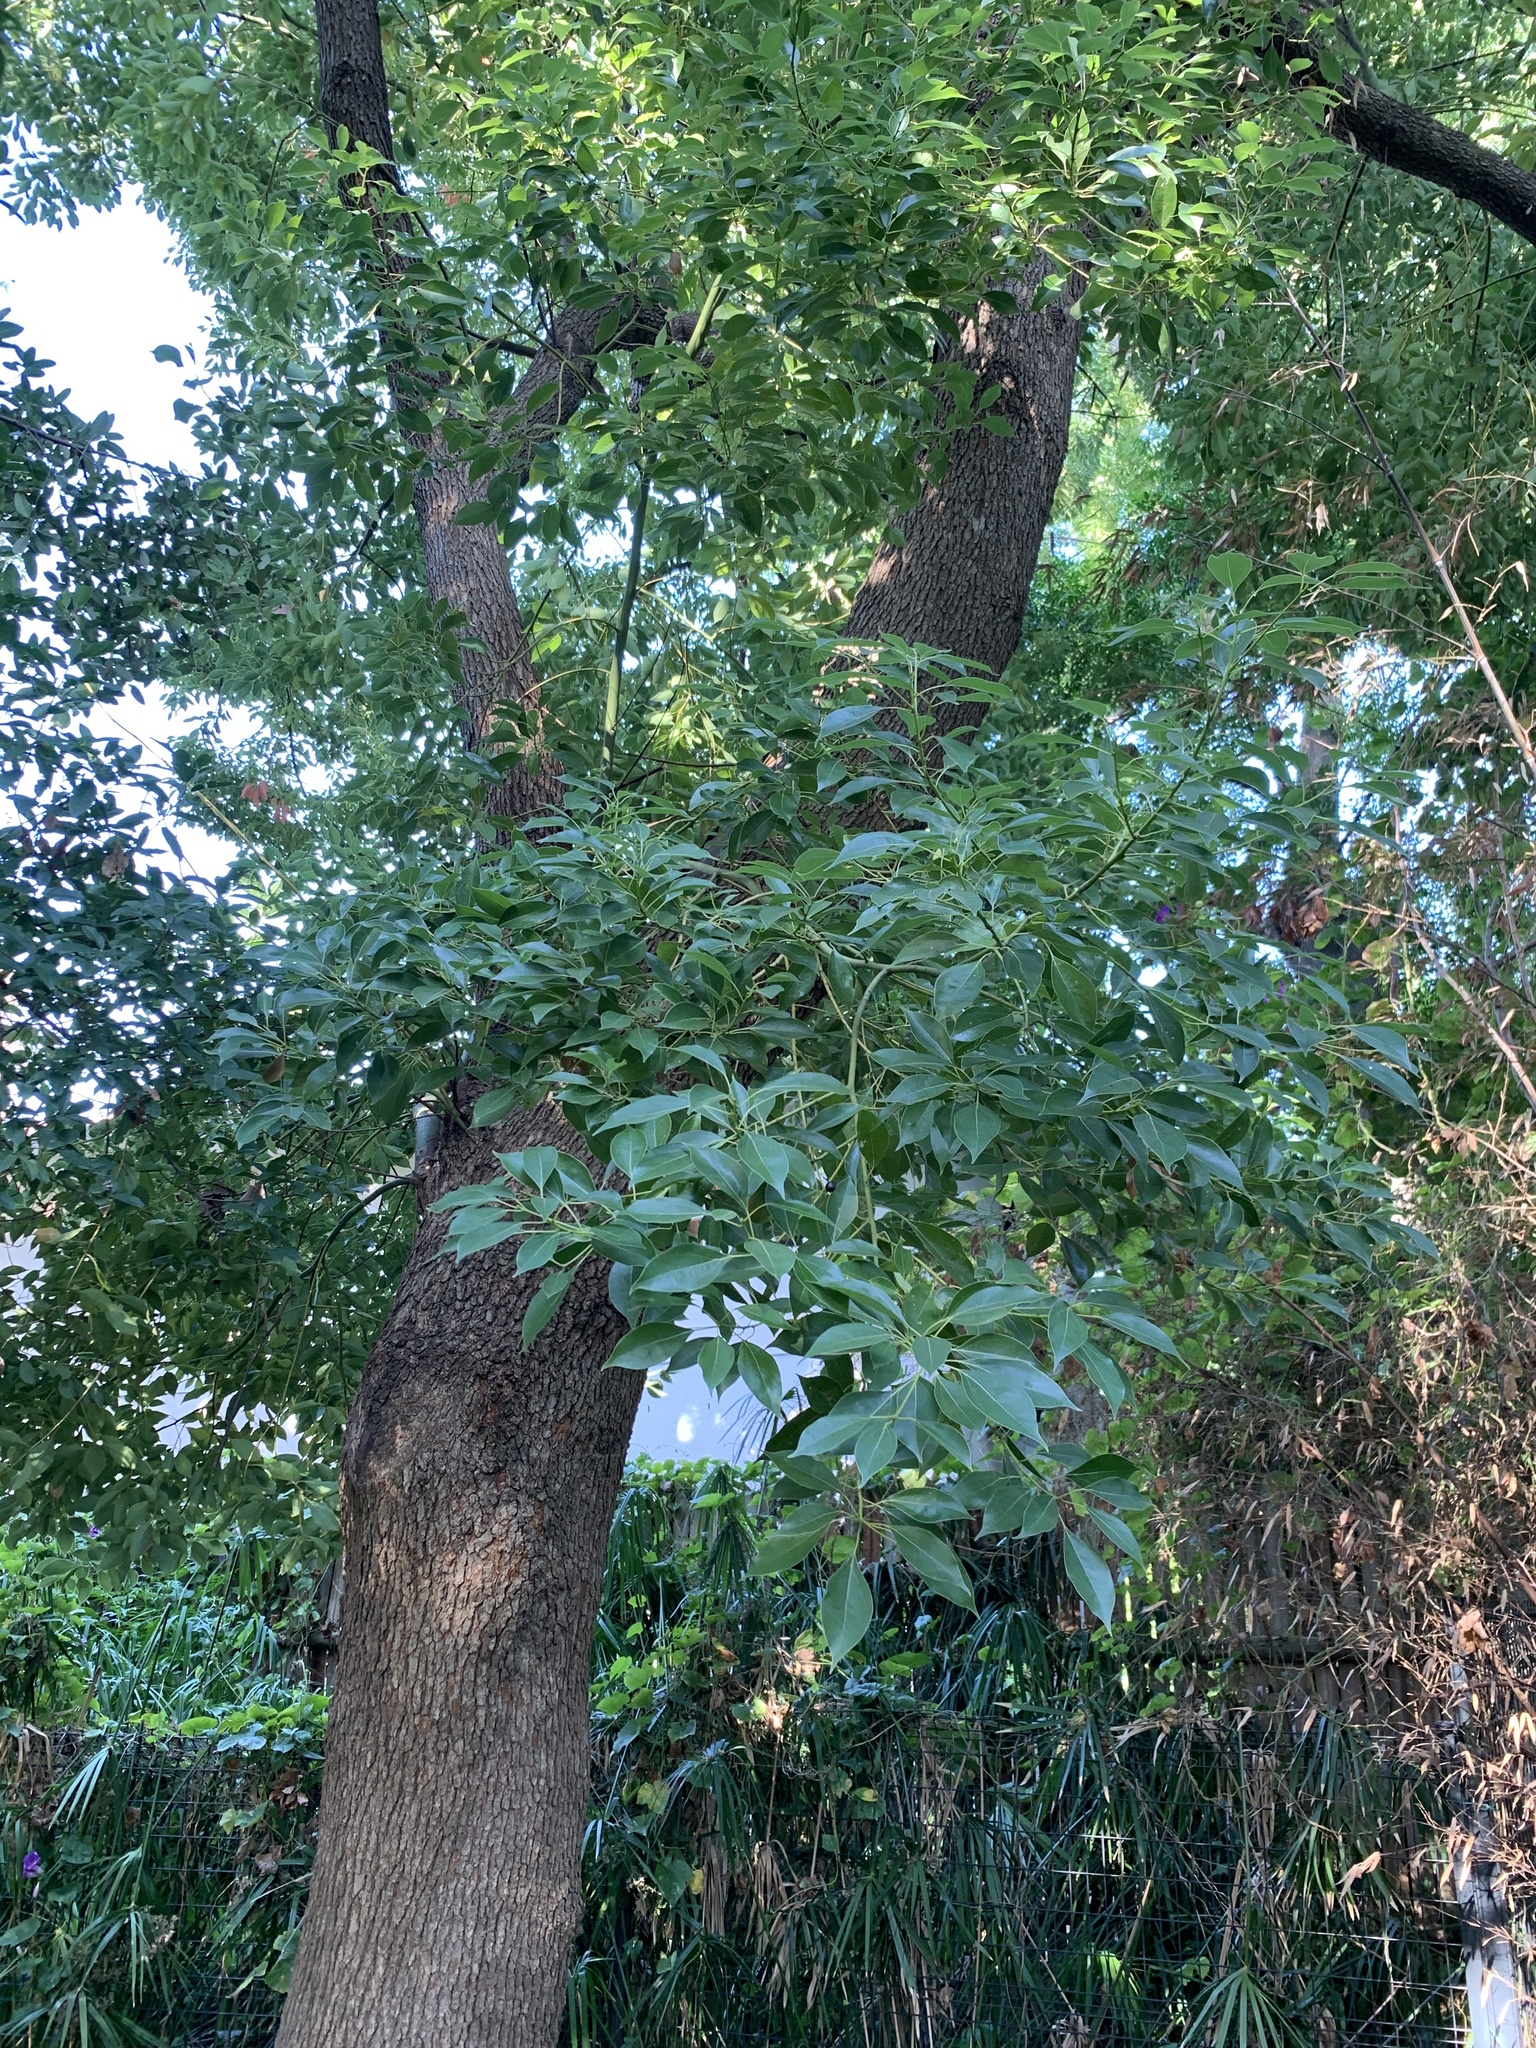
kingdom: Plantae
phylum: Tracheophyta
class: Magnoliopsida
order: Laurales
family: Lauraceae
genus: Cinnamomum
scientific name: Cinnamomum camphora
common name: Camphortree
